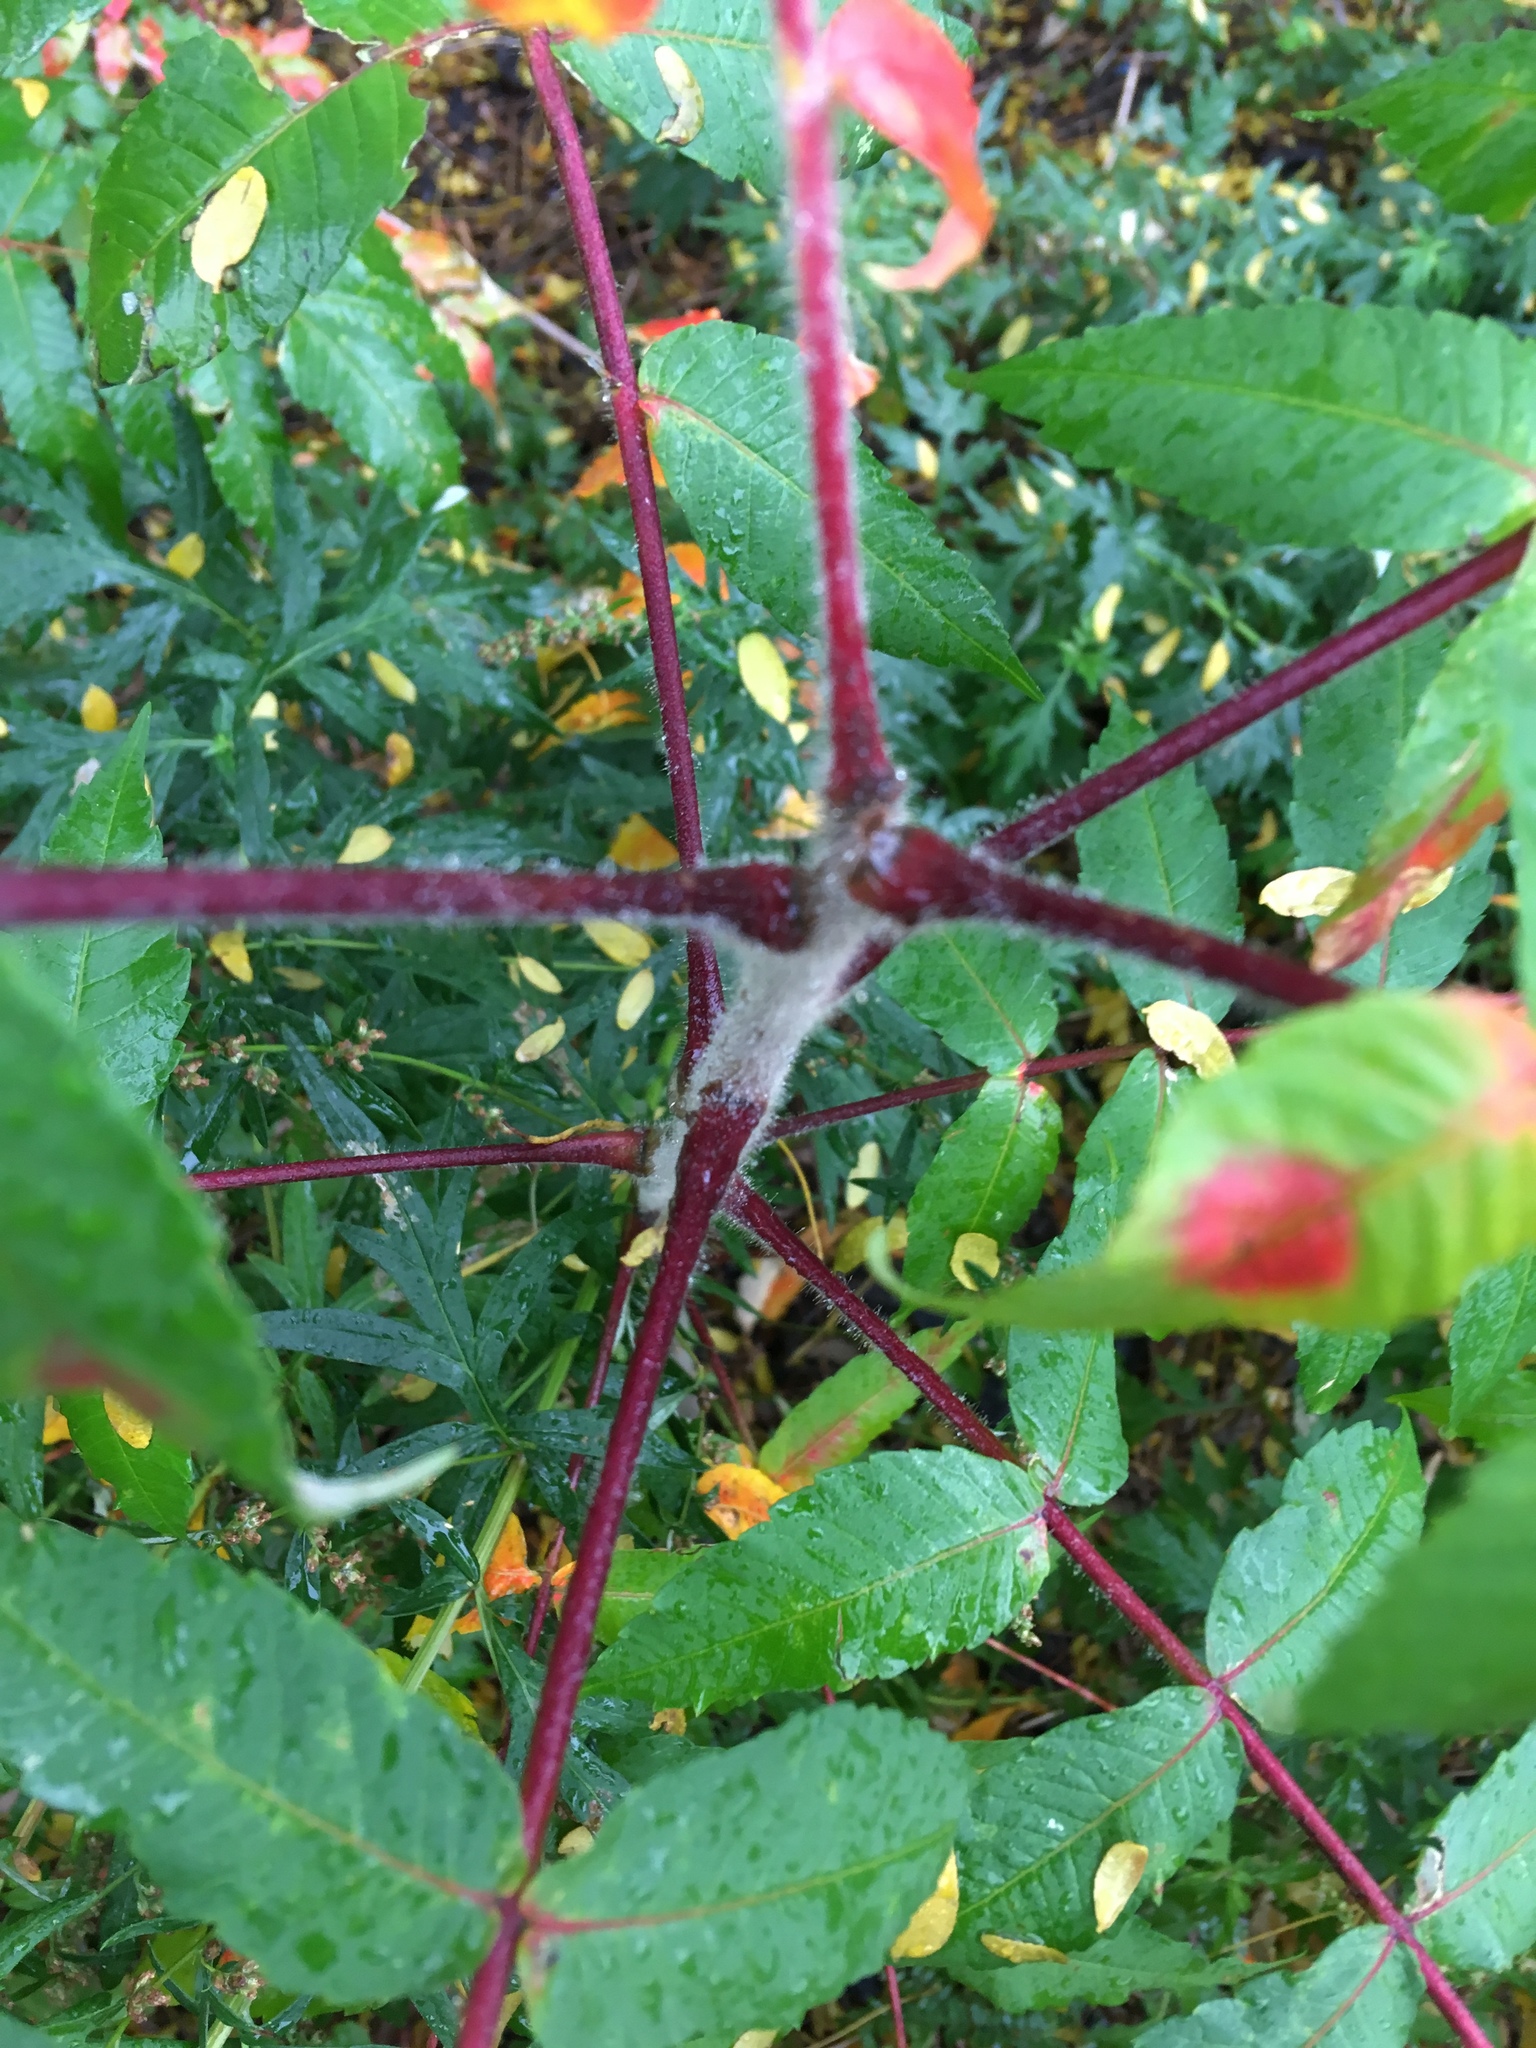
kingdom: Plantae
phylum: Tracheophyta
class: Magnoliopsida
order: Sapindales
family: Anacardiaceae
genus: Rhus
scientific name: Rhus typhina
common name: Staghorn sumac
